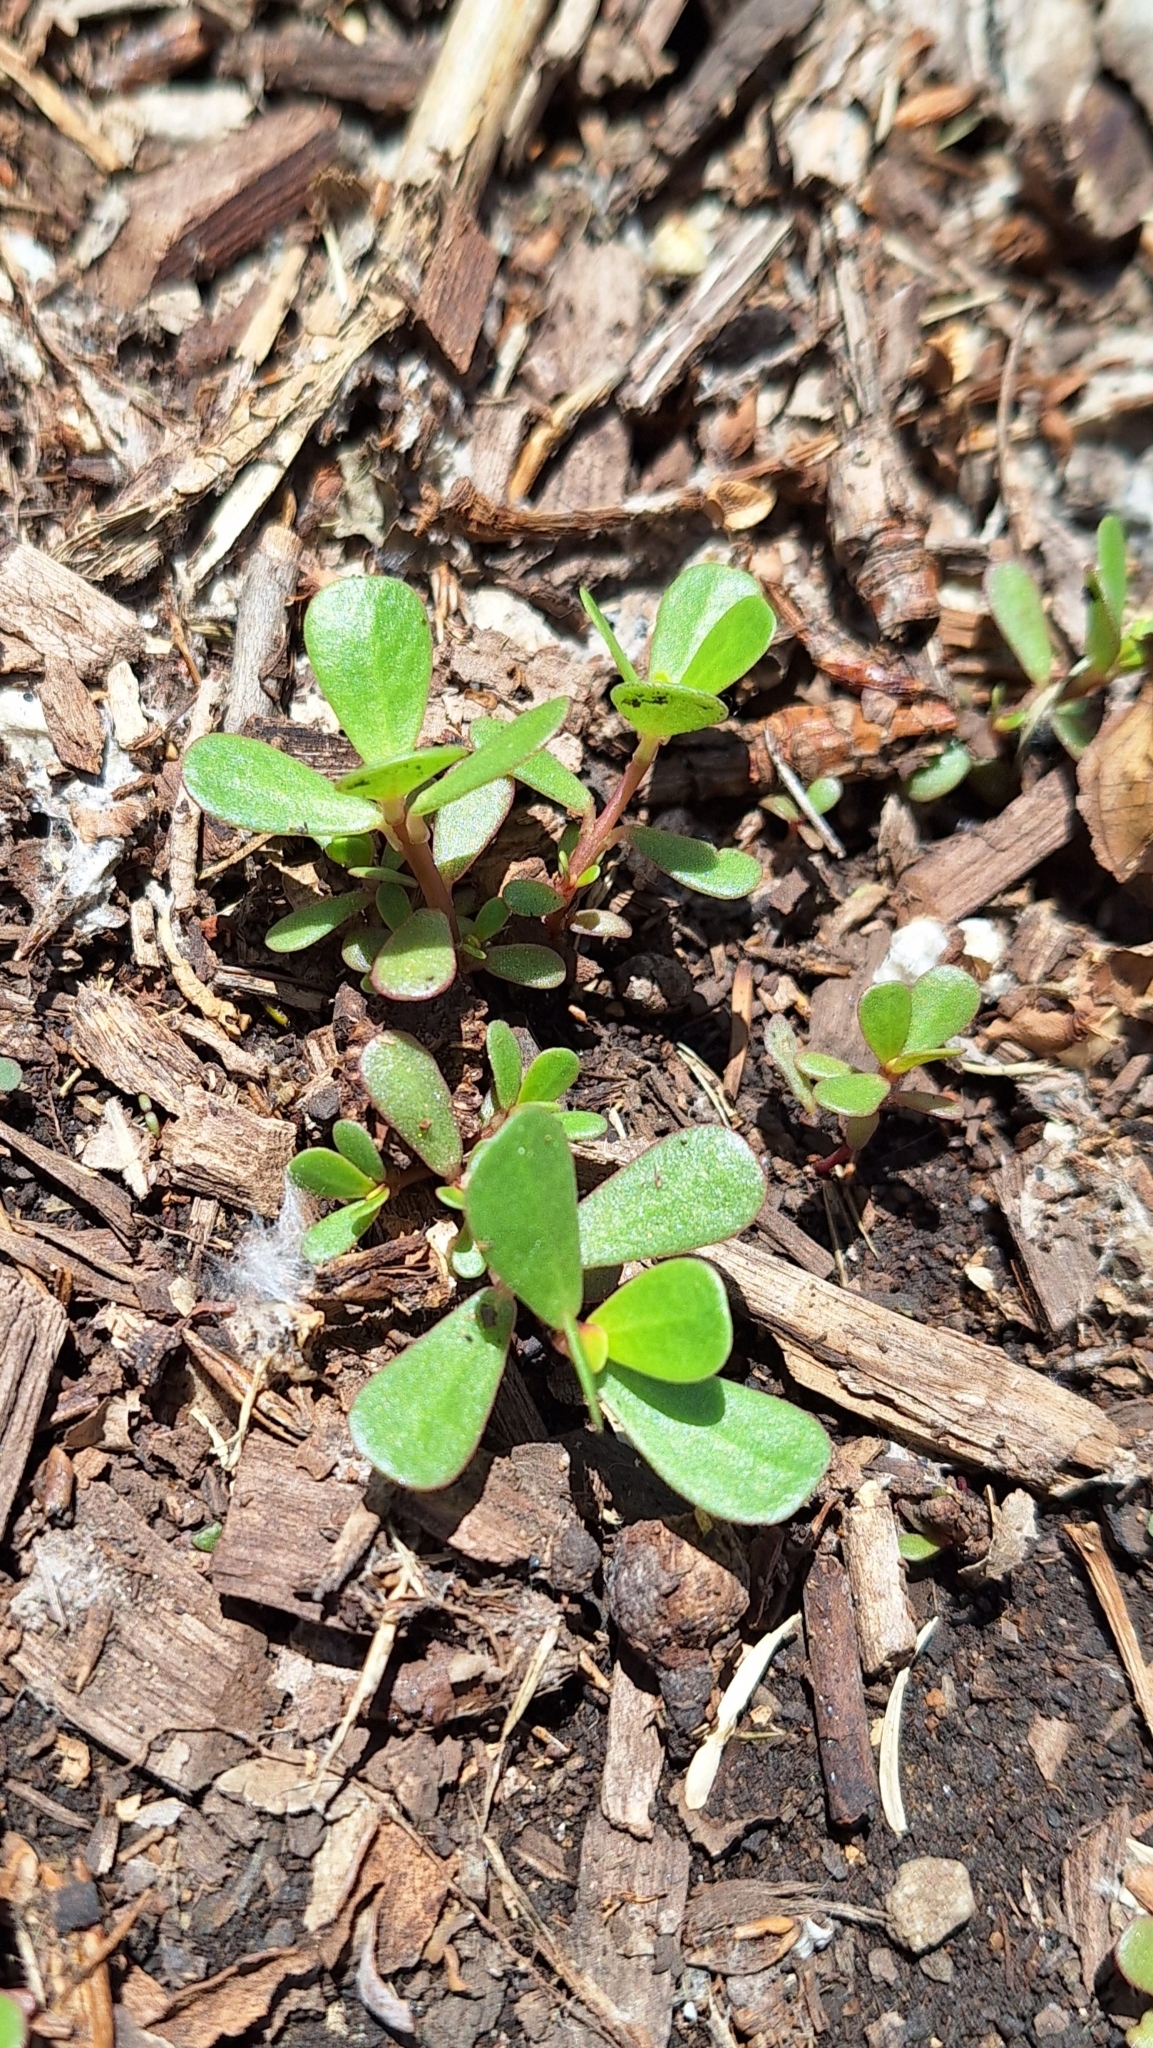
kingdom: Plantae
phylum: Tracheophyta
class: Magnoliopsida
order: Caryophyllales
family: Portulacaceae
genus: Portulaca
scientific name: Portulaca oleracea
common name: Common purslane
